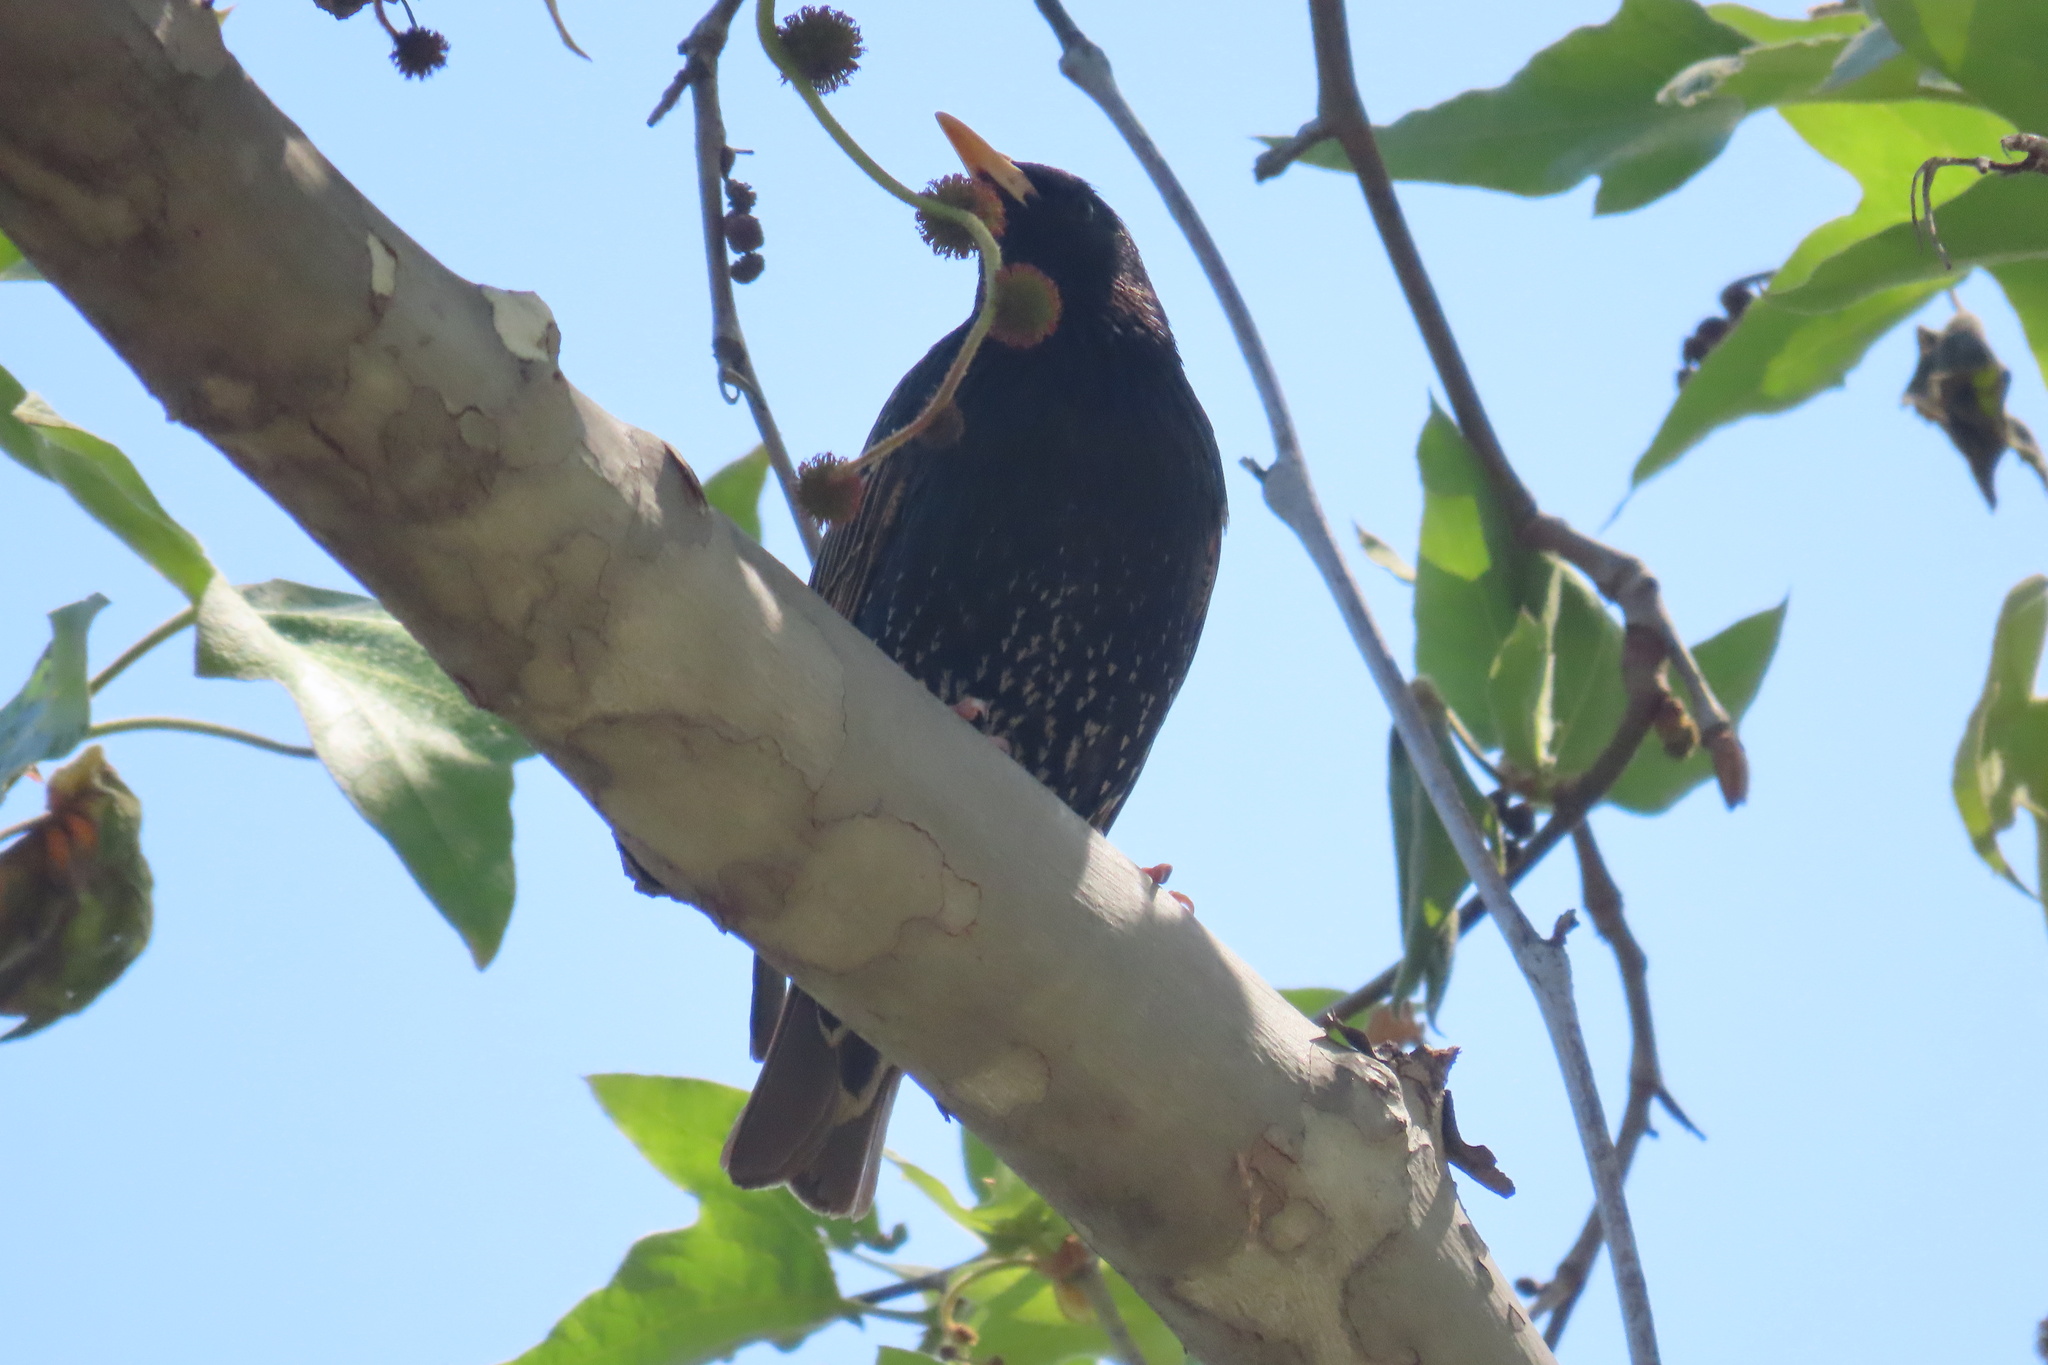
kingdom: Animalia
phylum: Chordata
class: Aves
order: Passeriformes
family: Sturnidae
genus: Sturnus
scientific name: Sturnus vulgaris
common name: Common starling
